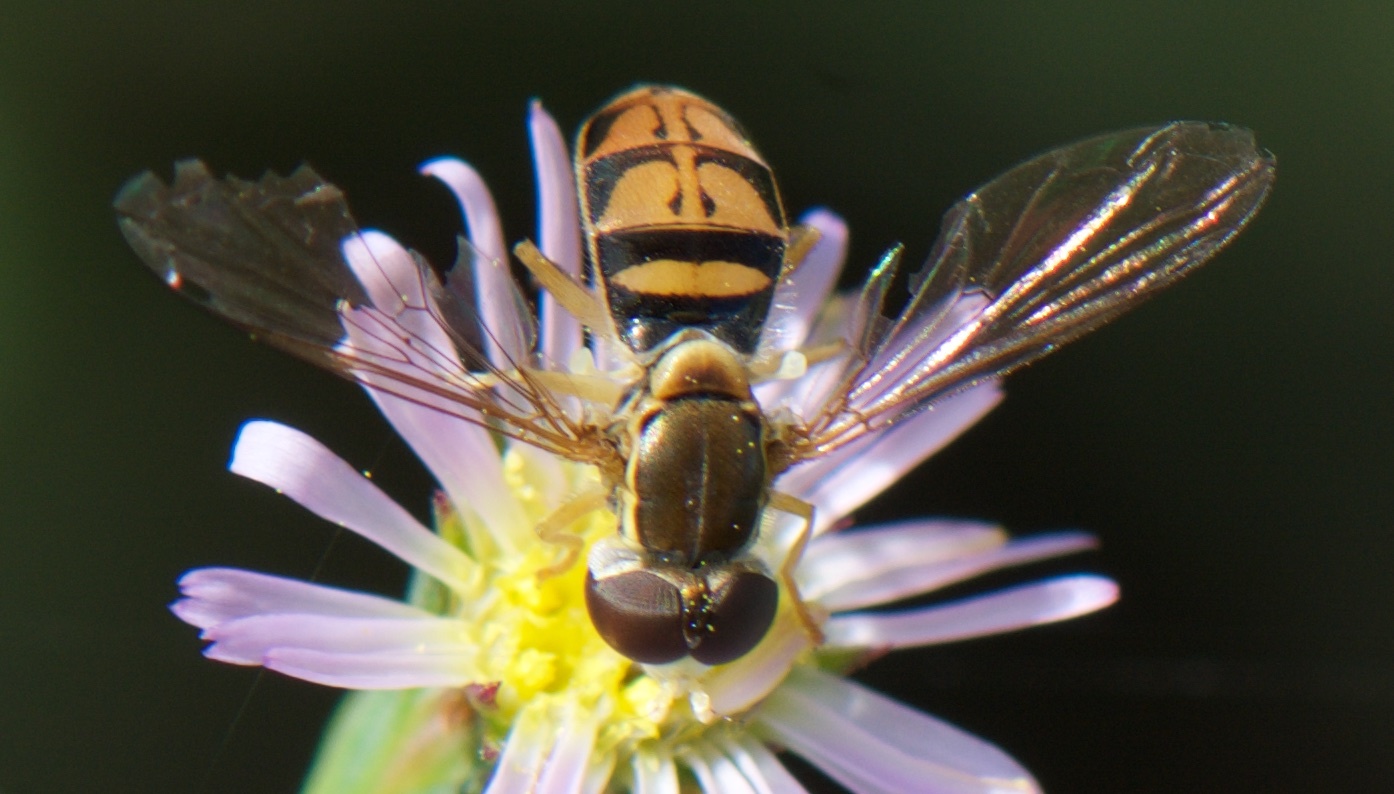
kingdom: Animalia
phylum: Arthropoda
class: Insecta
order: Diptera
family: Syrphidae
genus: Toxomerus
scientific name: Toxomerus marginatus
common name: Syrphid fly
